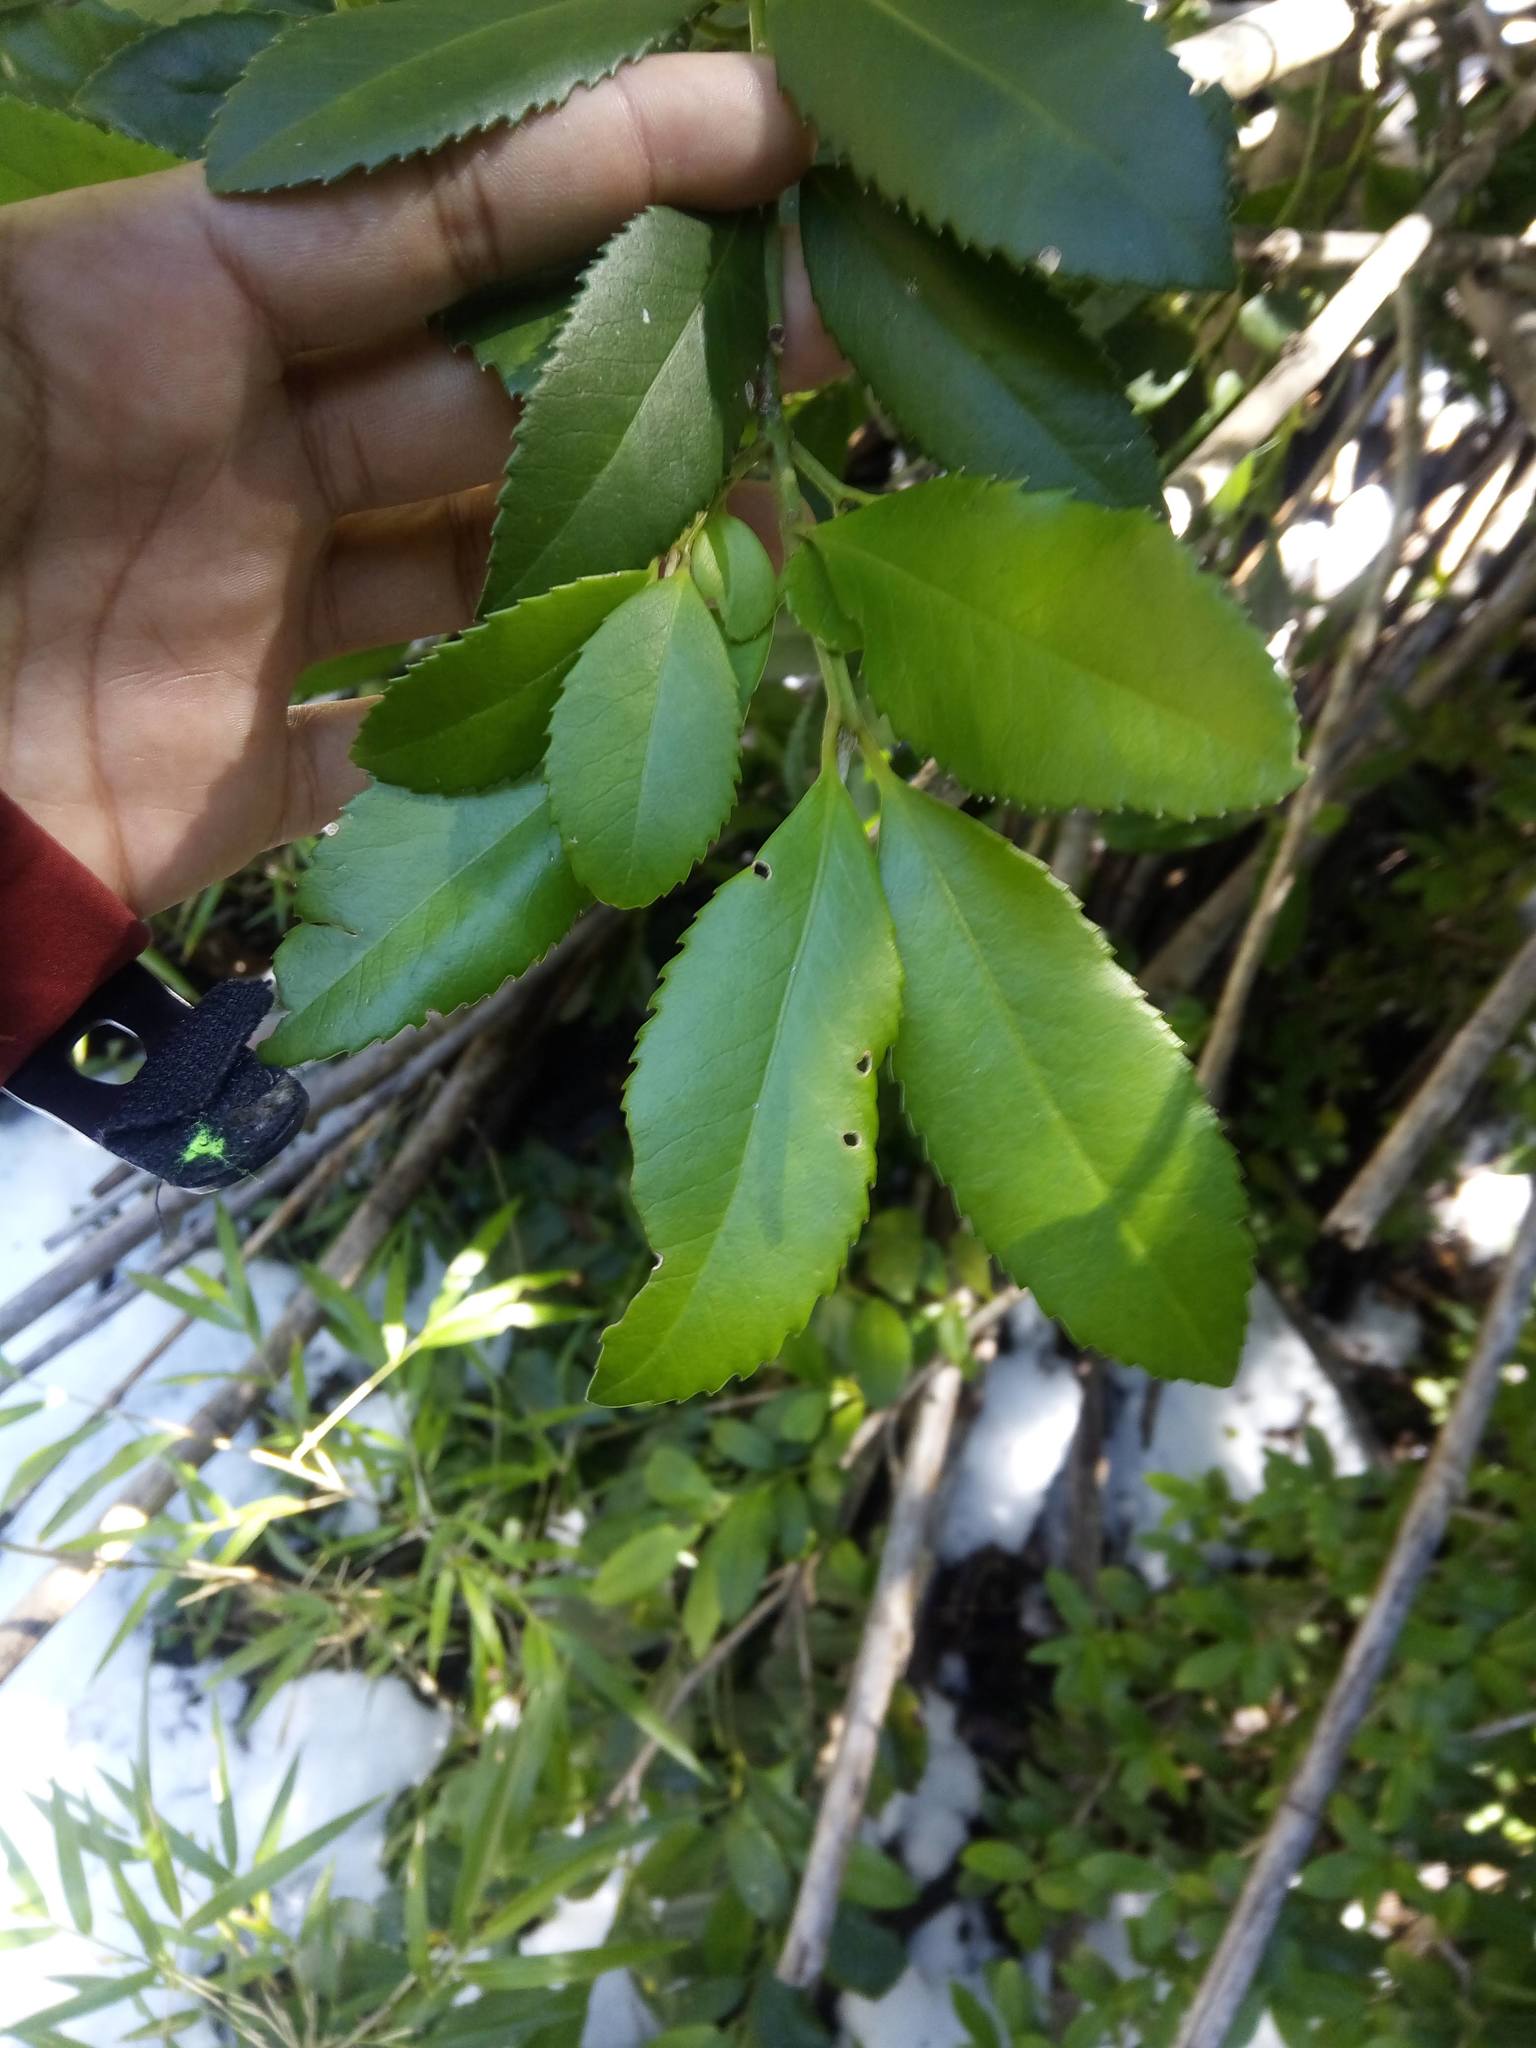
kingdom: Plantae
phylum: Tracheophyta
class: Magnoliopsida
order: Laurales
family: Atherospermataceae
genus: Laureliopsis
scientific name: Laureliopsis philippiana
